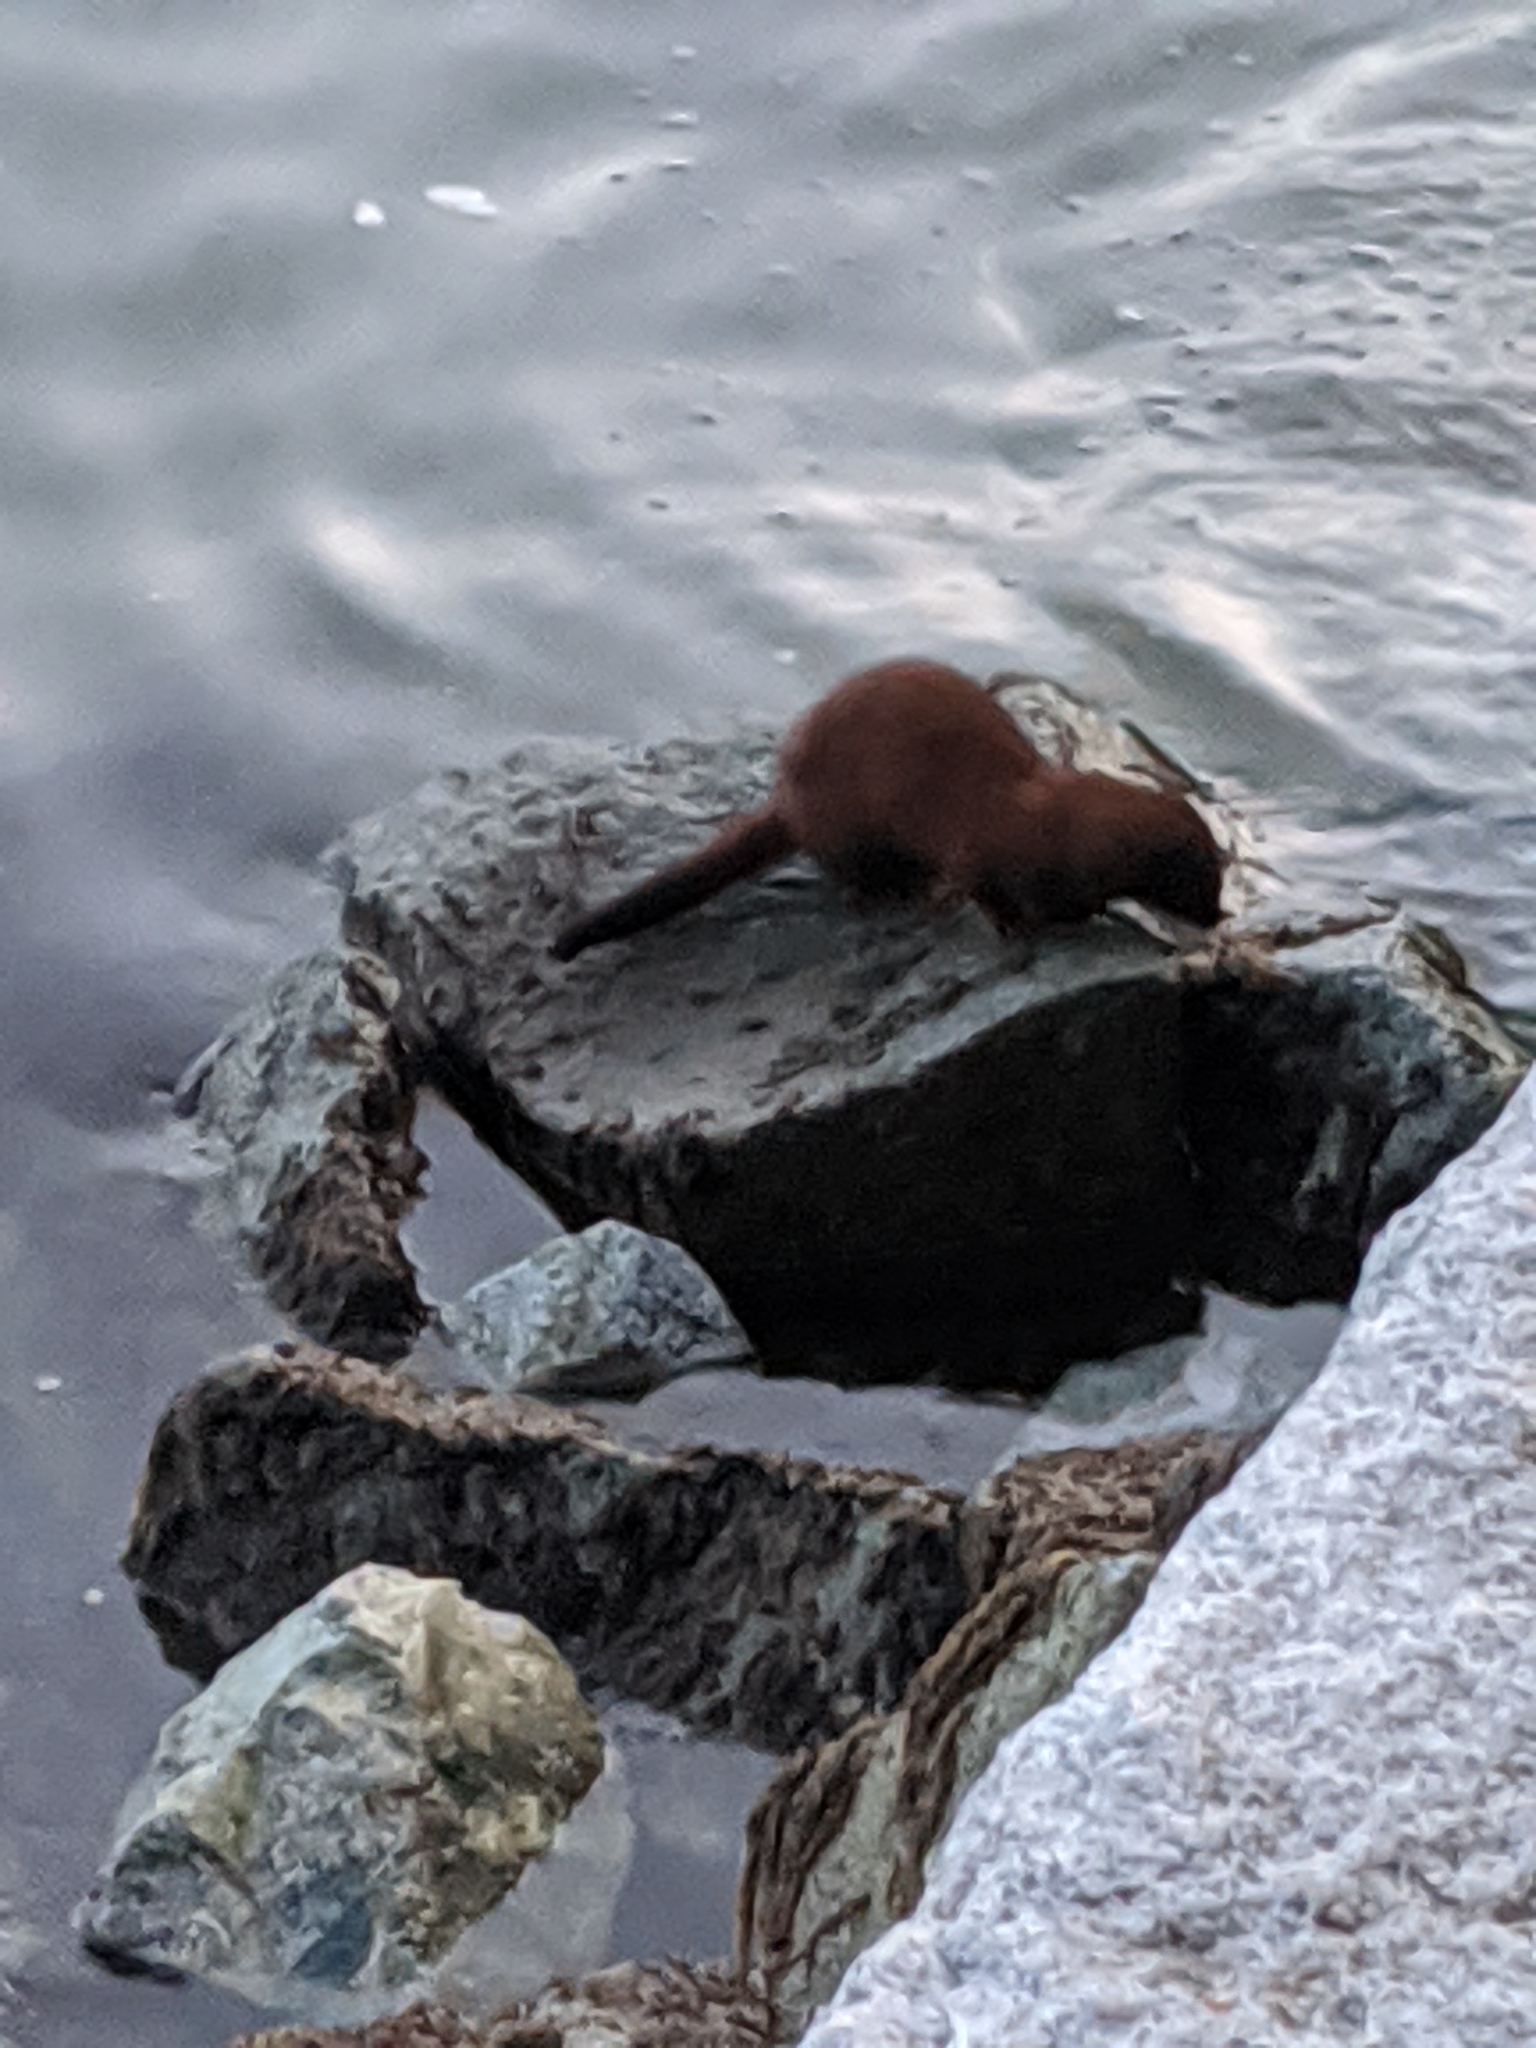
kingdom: Animalia
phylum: Chordata
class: Mammalia
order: Carnivora
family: Mustelidae
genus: Mustela
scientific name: Mustela
